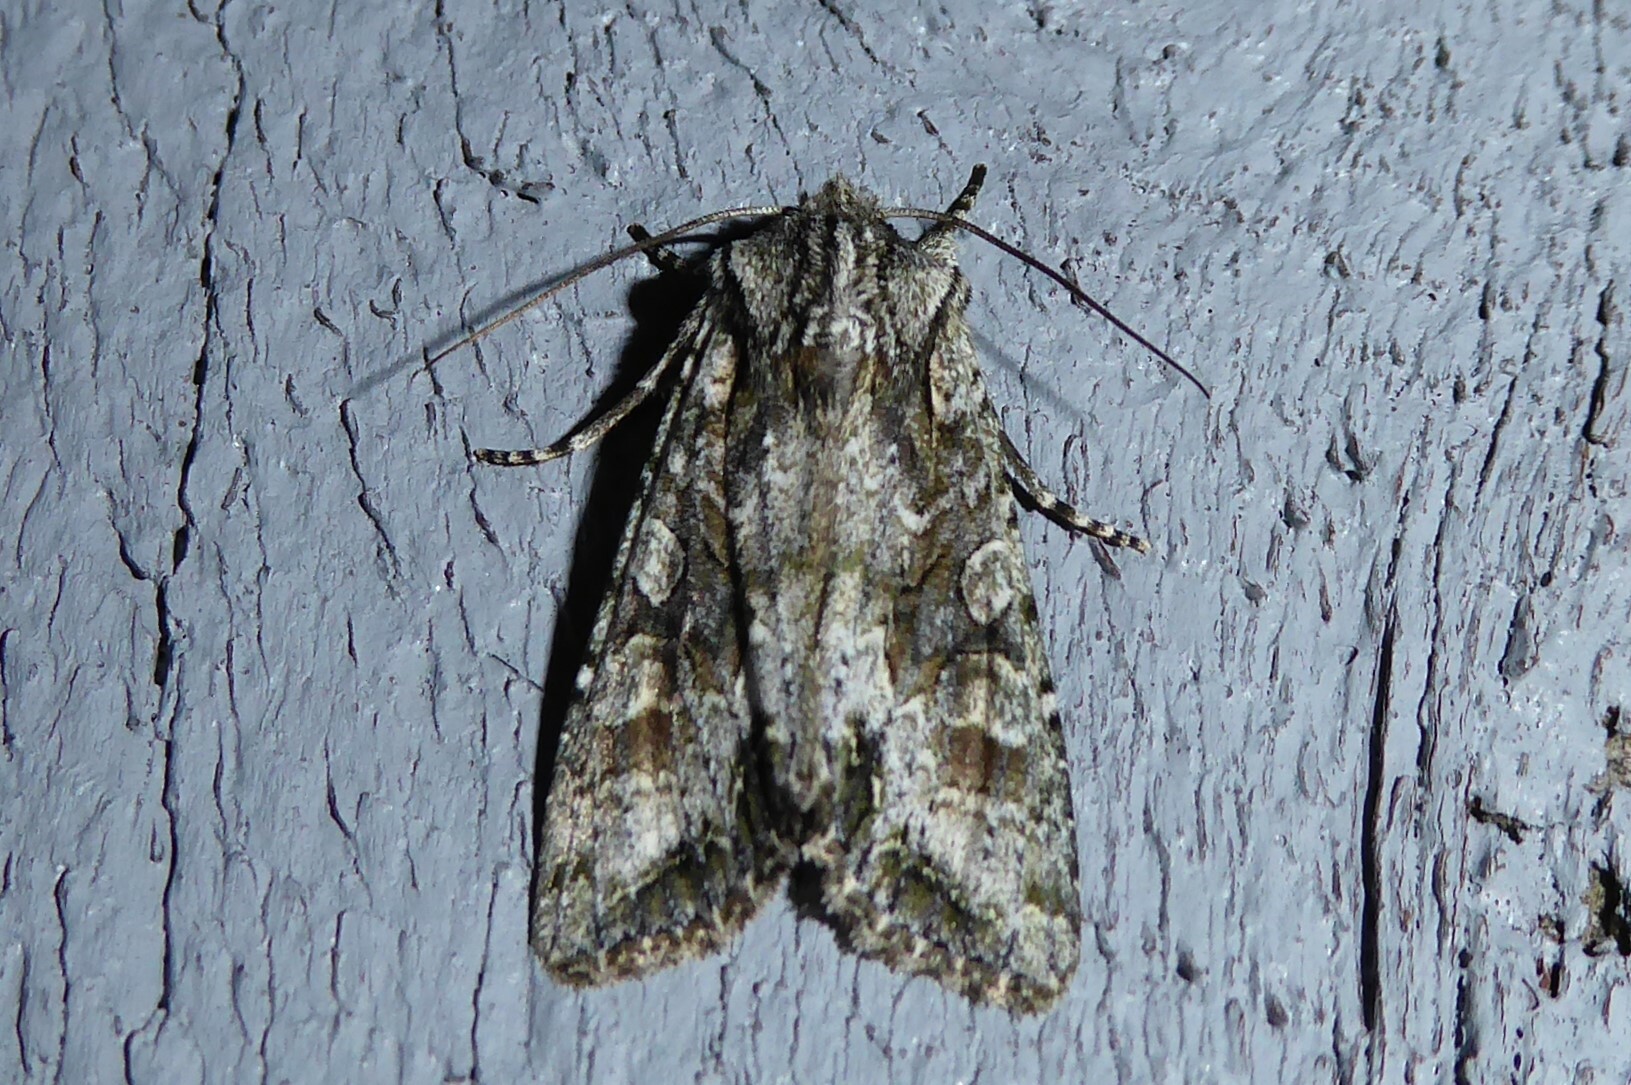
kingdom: Animalia
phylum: Arthropoda
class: Insecta
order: Lepidoptera
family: Noctuidae
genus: Ichneutica
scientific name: Ichneutica mutans
